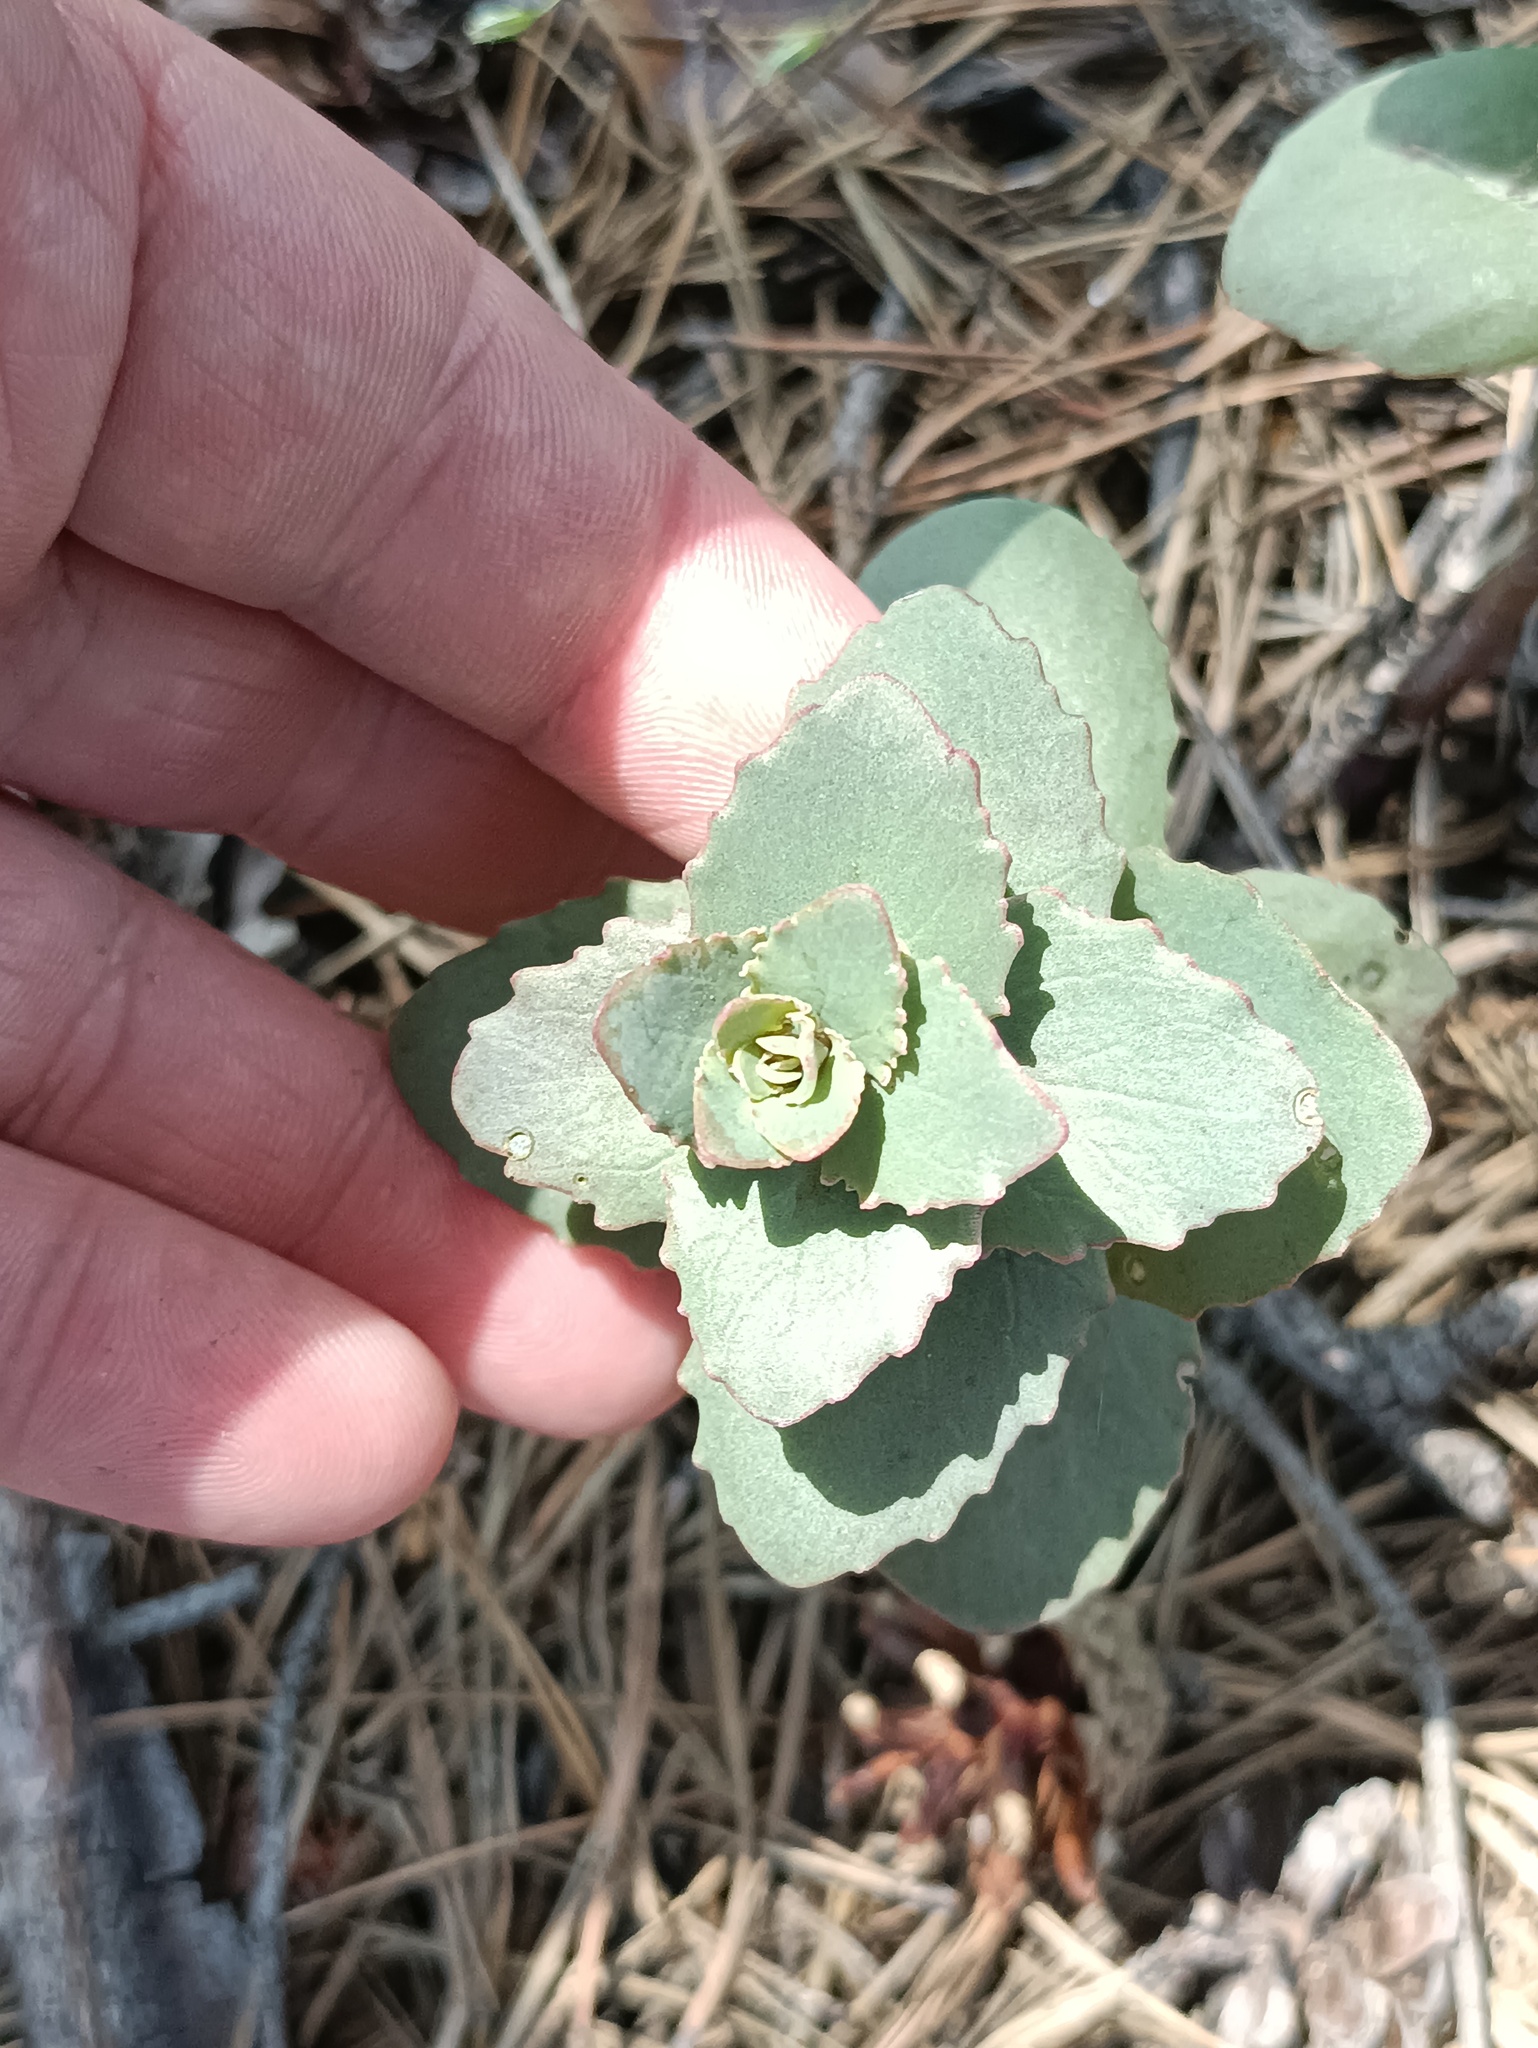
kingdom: Plantae
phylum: Tracheophyta
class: Magnoliopsida
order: Saxifragales
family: Crassulaceae
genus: Hylotelephium
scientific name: Hylotelephium maximum
